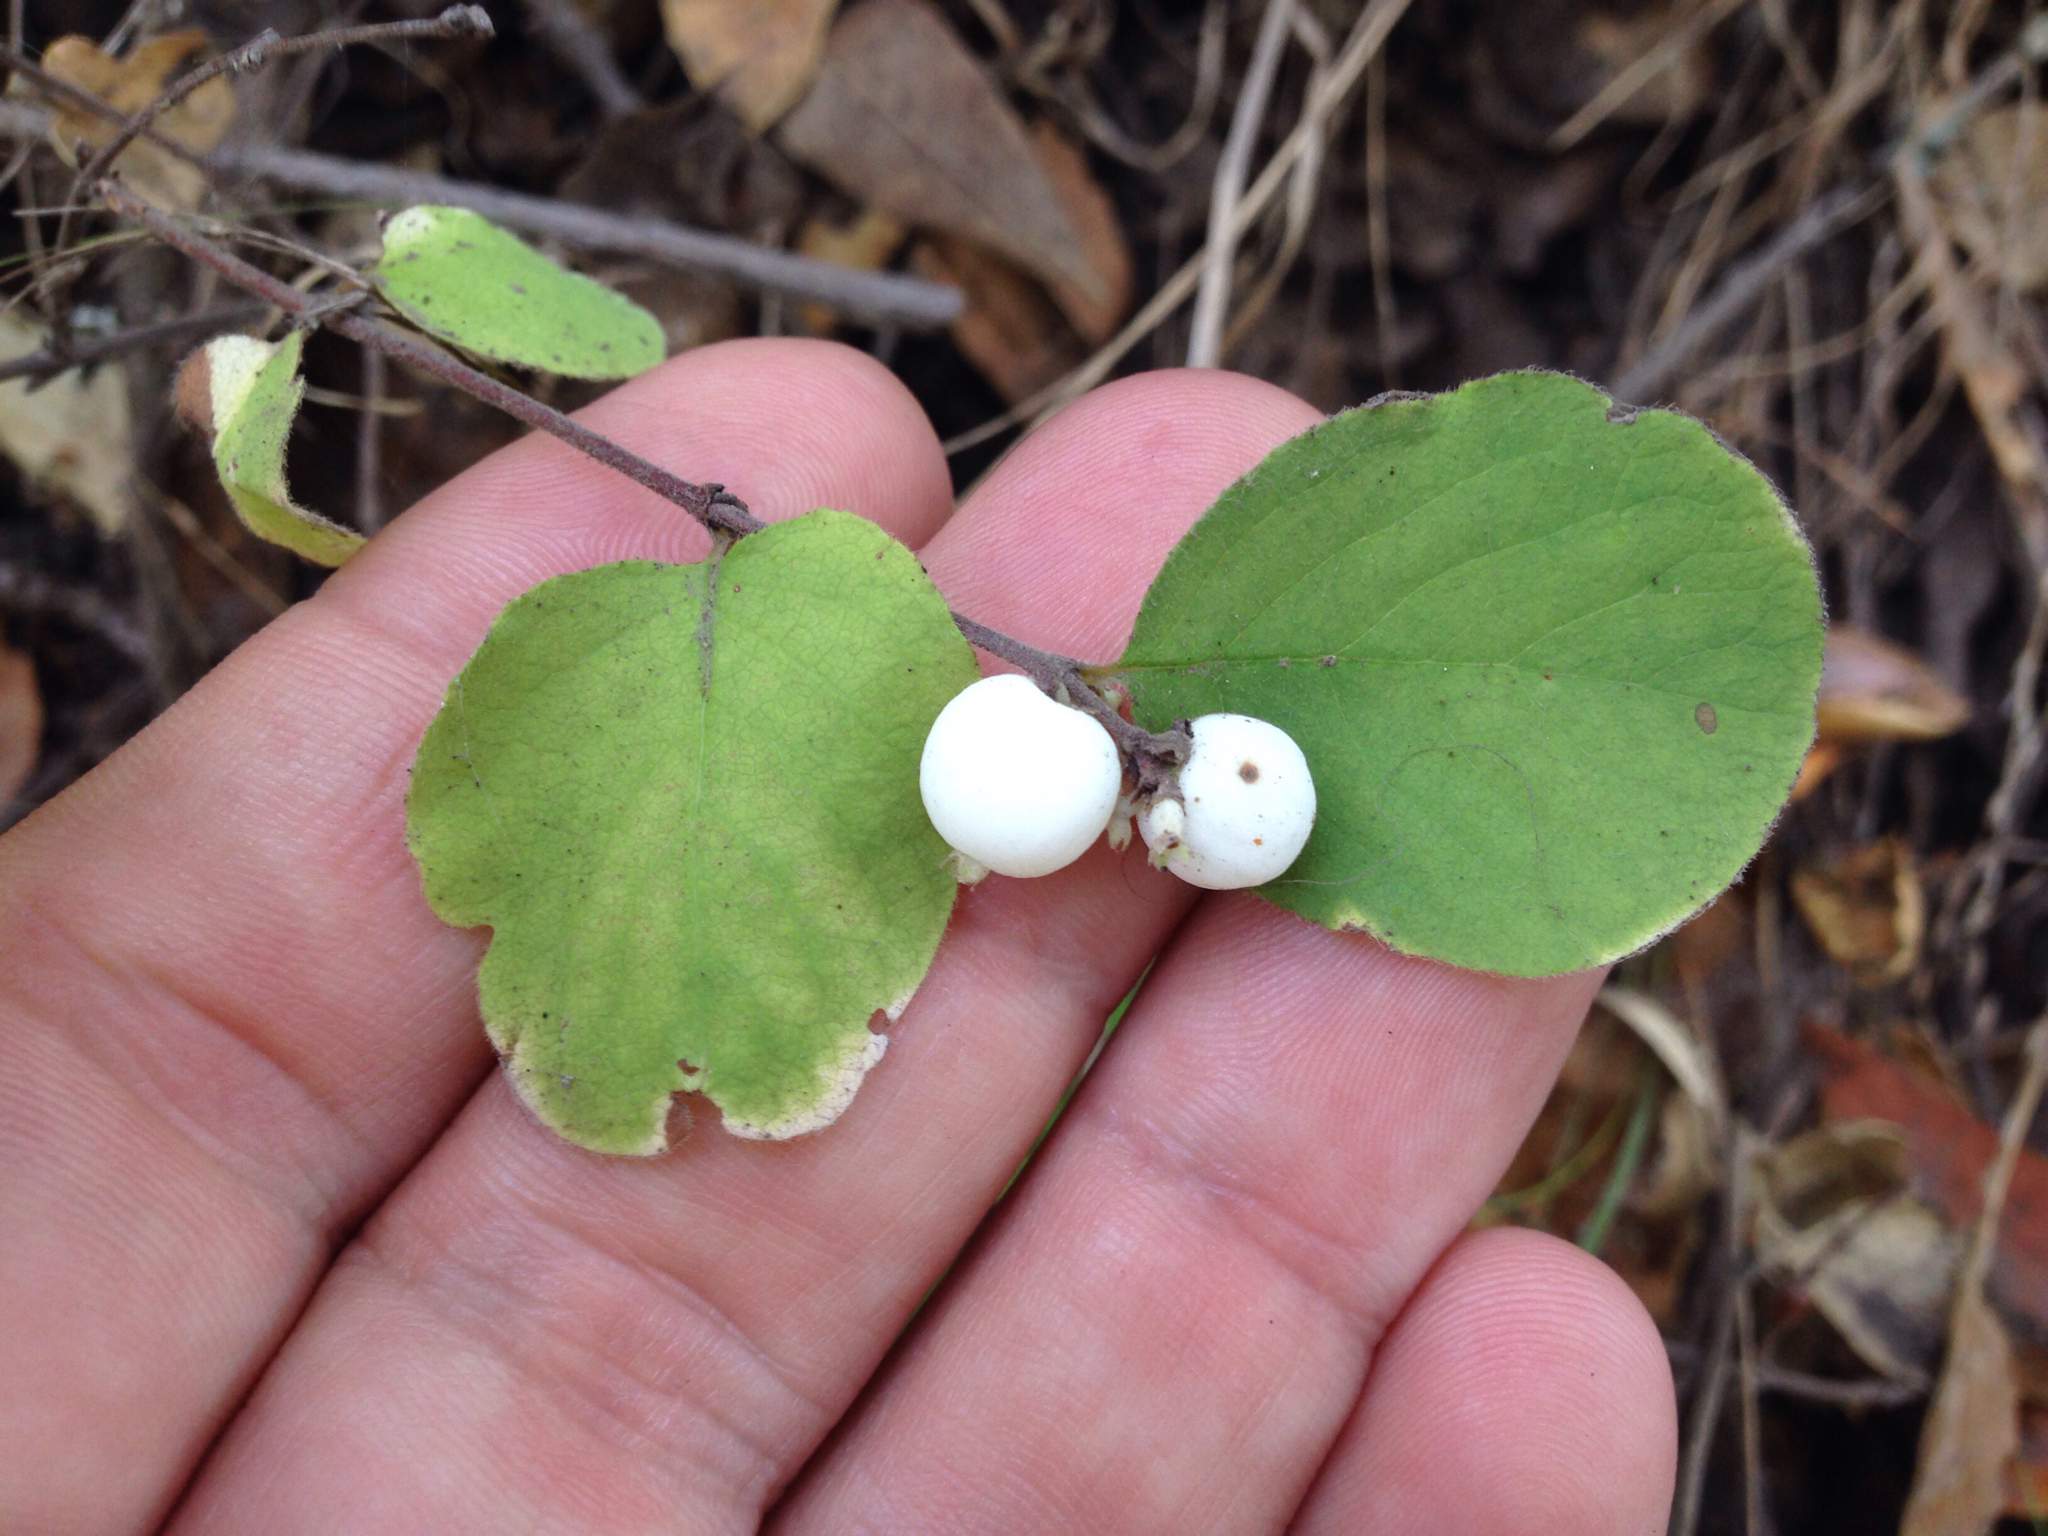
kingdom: Plantae
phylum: Tracheophyta
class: Magnoliopsida
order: Dipsacales
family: Caprifoliaceae
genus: Symphoricarpos
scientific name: Symphoricarpos mollis
